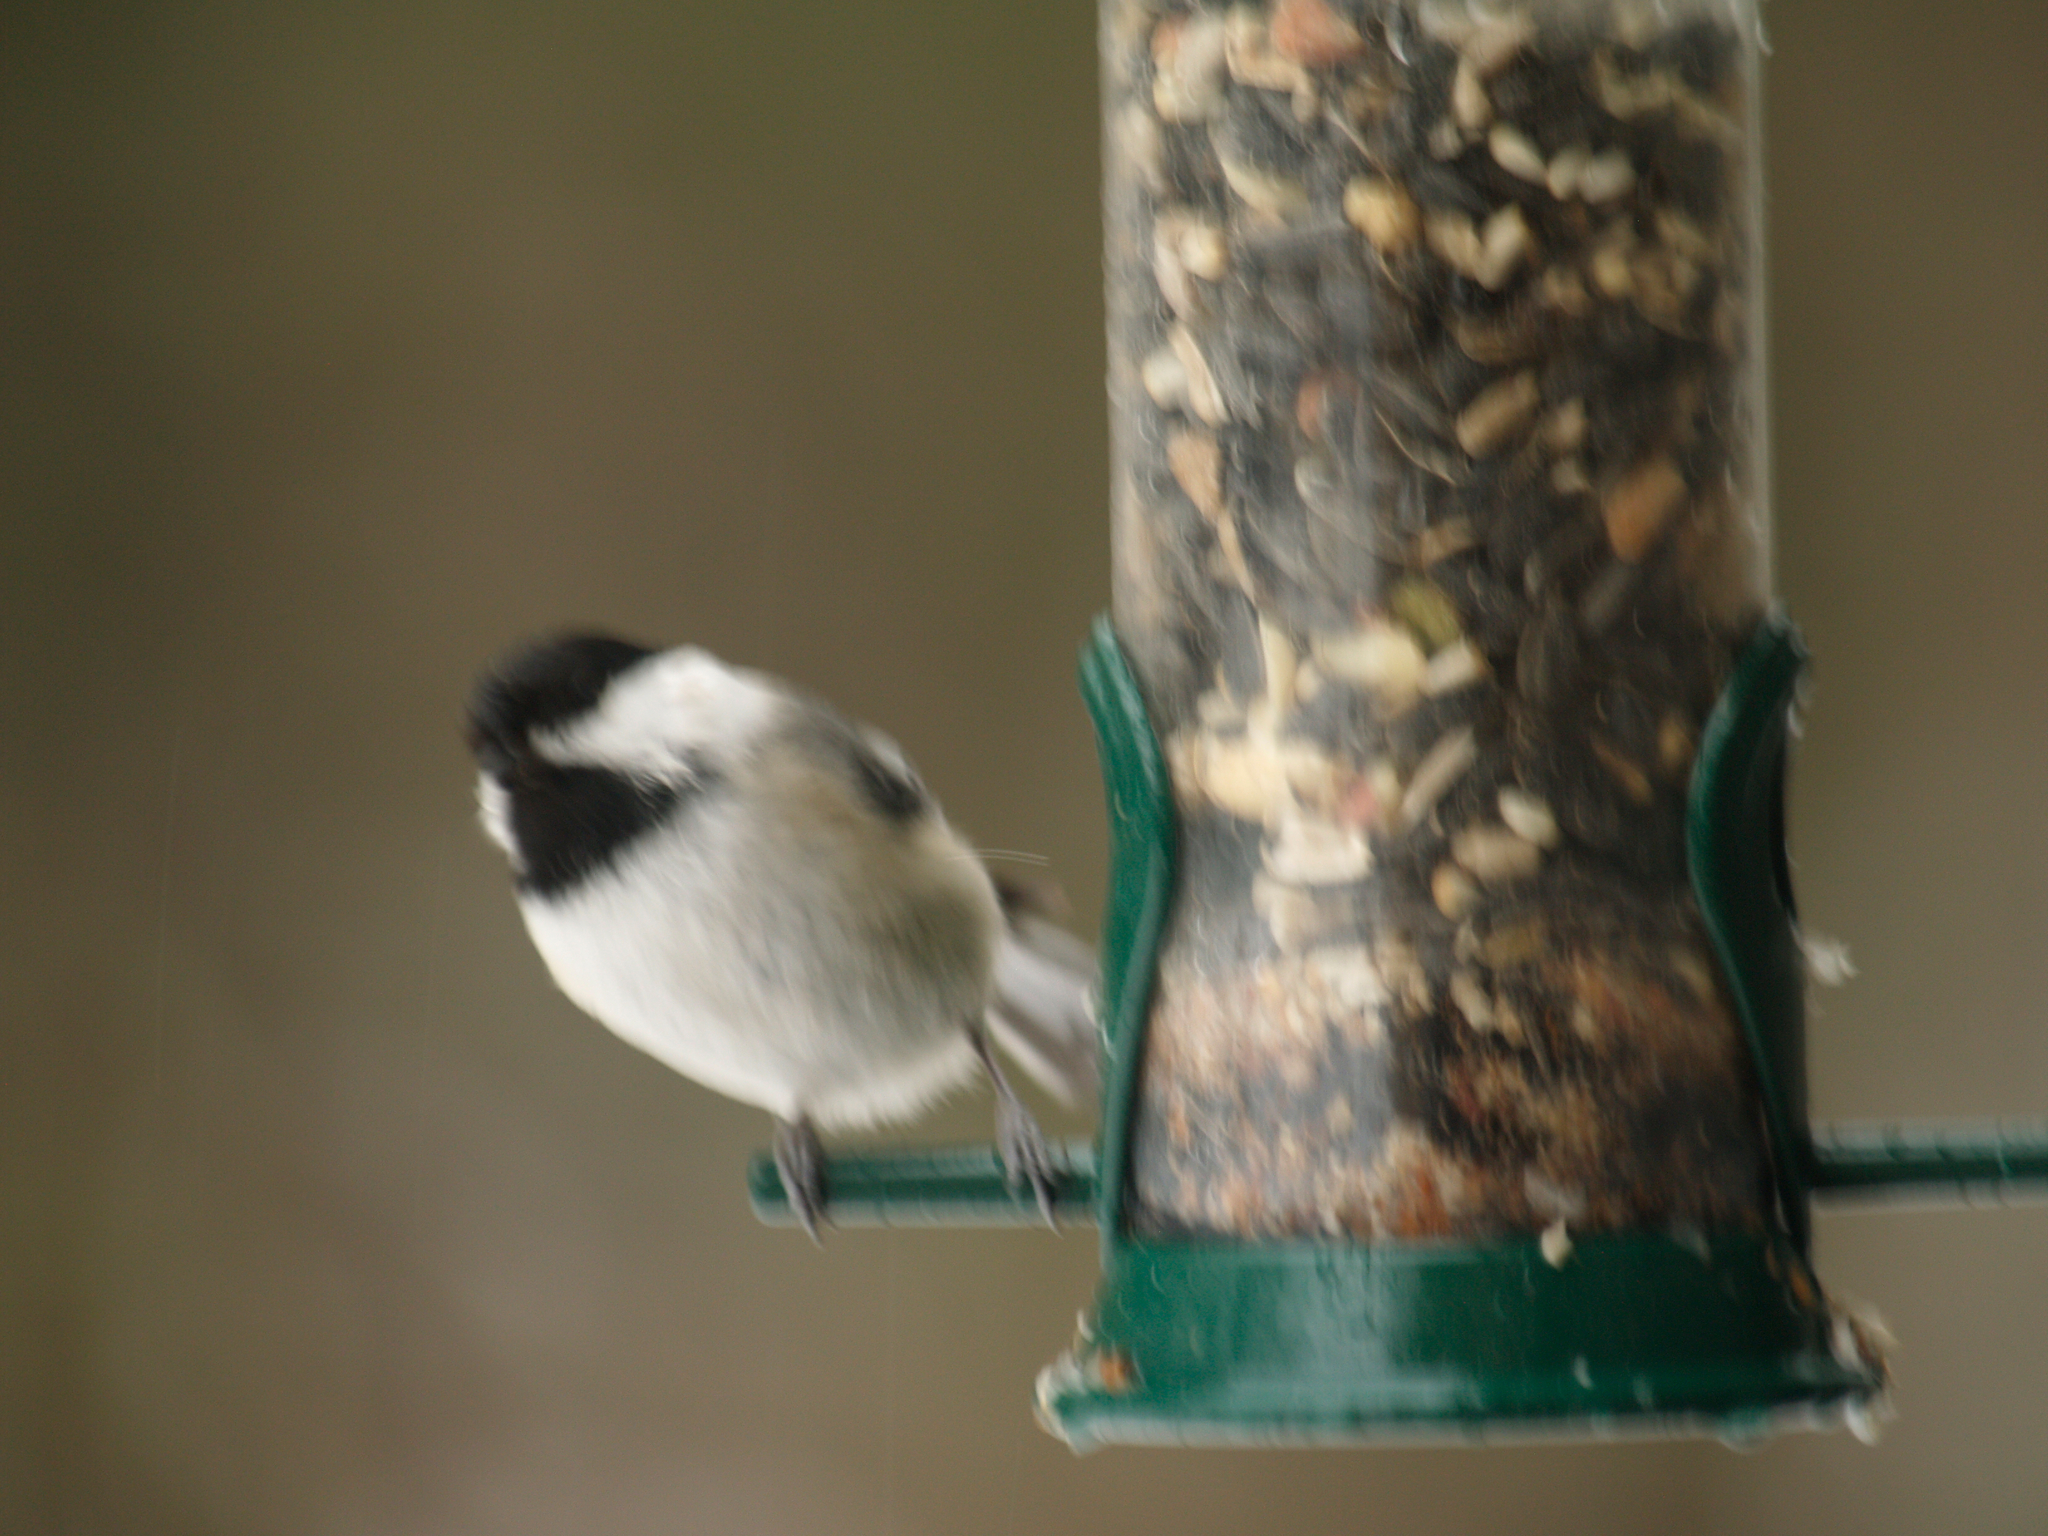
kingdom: Animalia
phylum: Chordata
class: Aves
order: Passeriformes
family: Paridae
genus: Poecile
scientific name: Poecile atricapillus
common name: Black-capped chickadee
